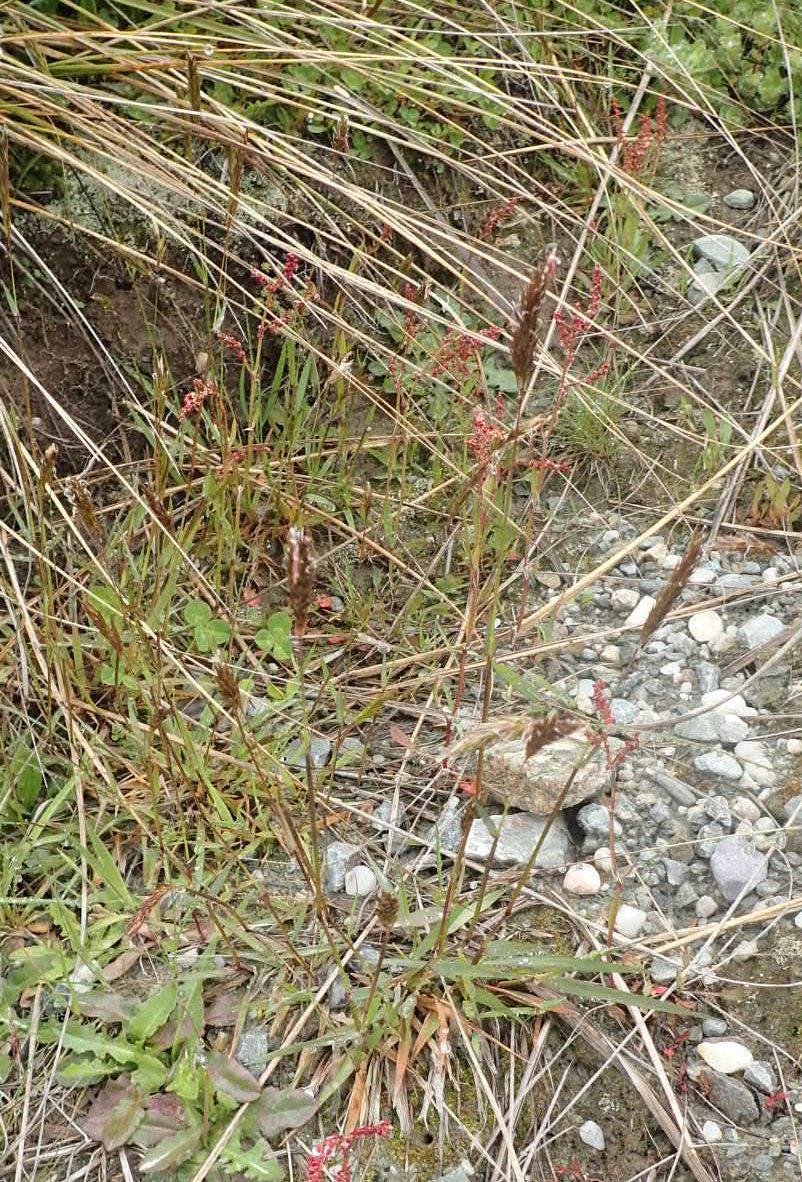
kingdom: Plantae
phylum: Tracheophyta
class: Liliopsida
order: Poales
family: Poaceae
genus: Anthoxanthum
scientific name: Anthoxanthum odoratum
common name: Sweet vernalgrass
